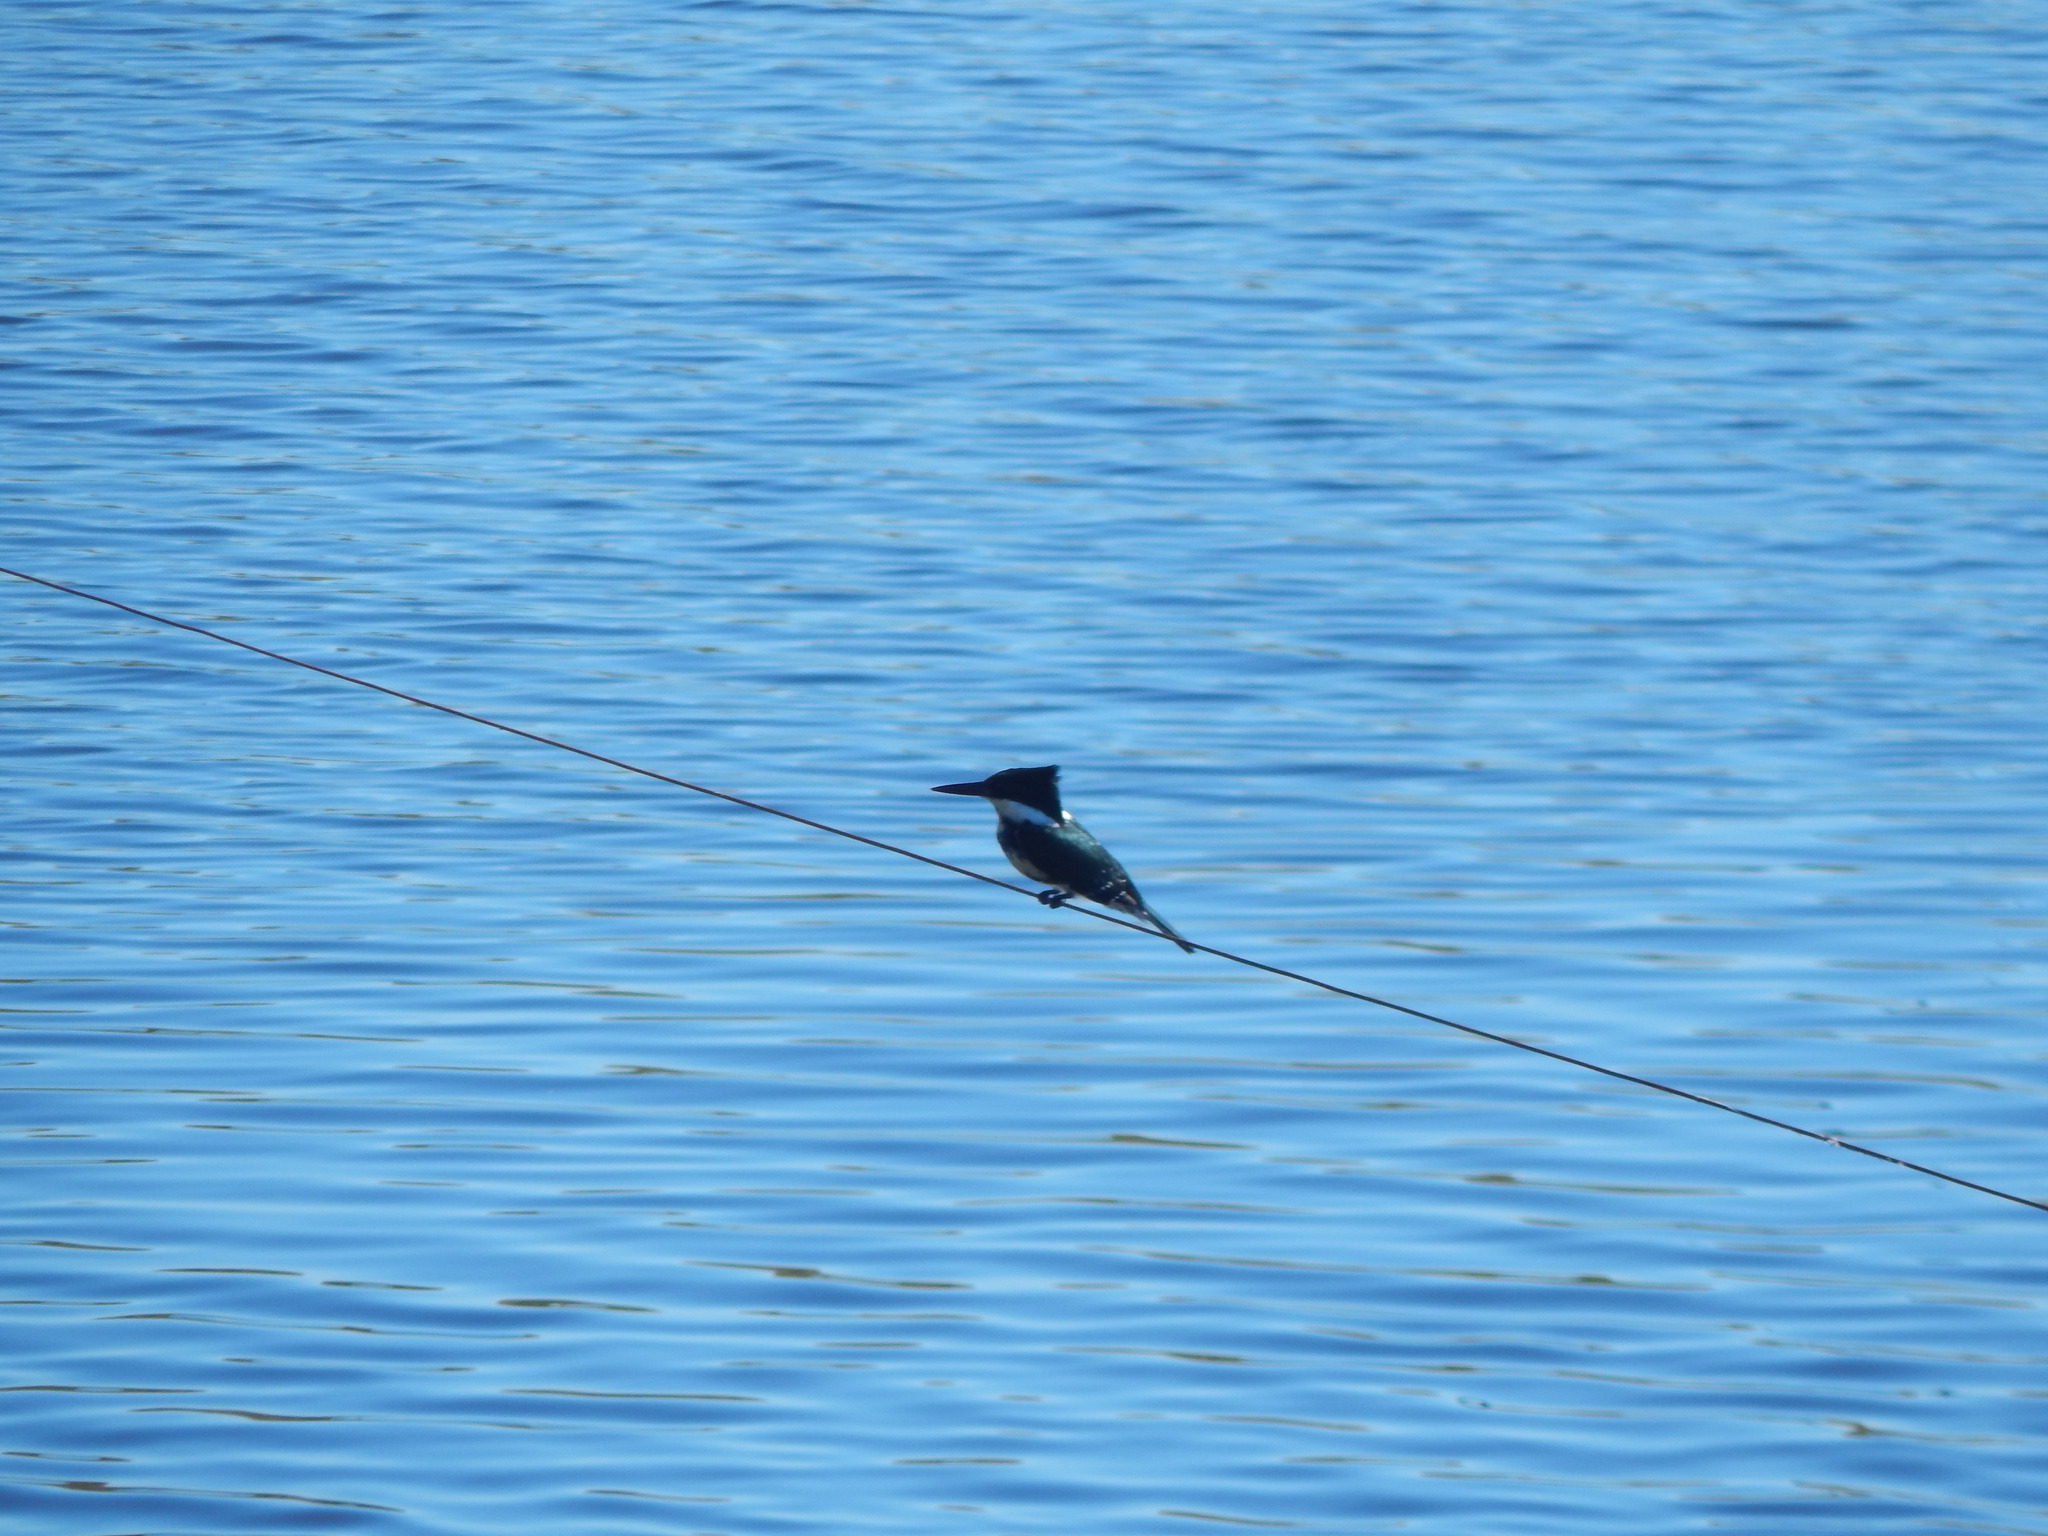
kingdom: Animalia
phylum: Chordata
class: Aves
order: Coraciiformes
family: Alcedinidae
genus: Chloroceryle
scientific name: Chloroceryle americana
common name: Green kingfisher
